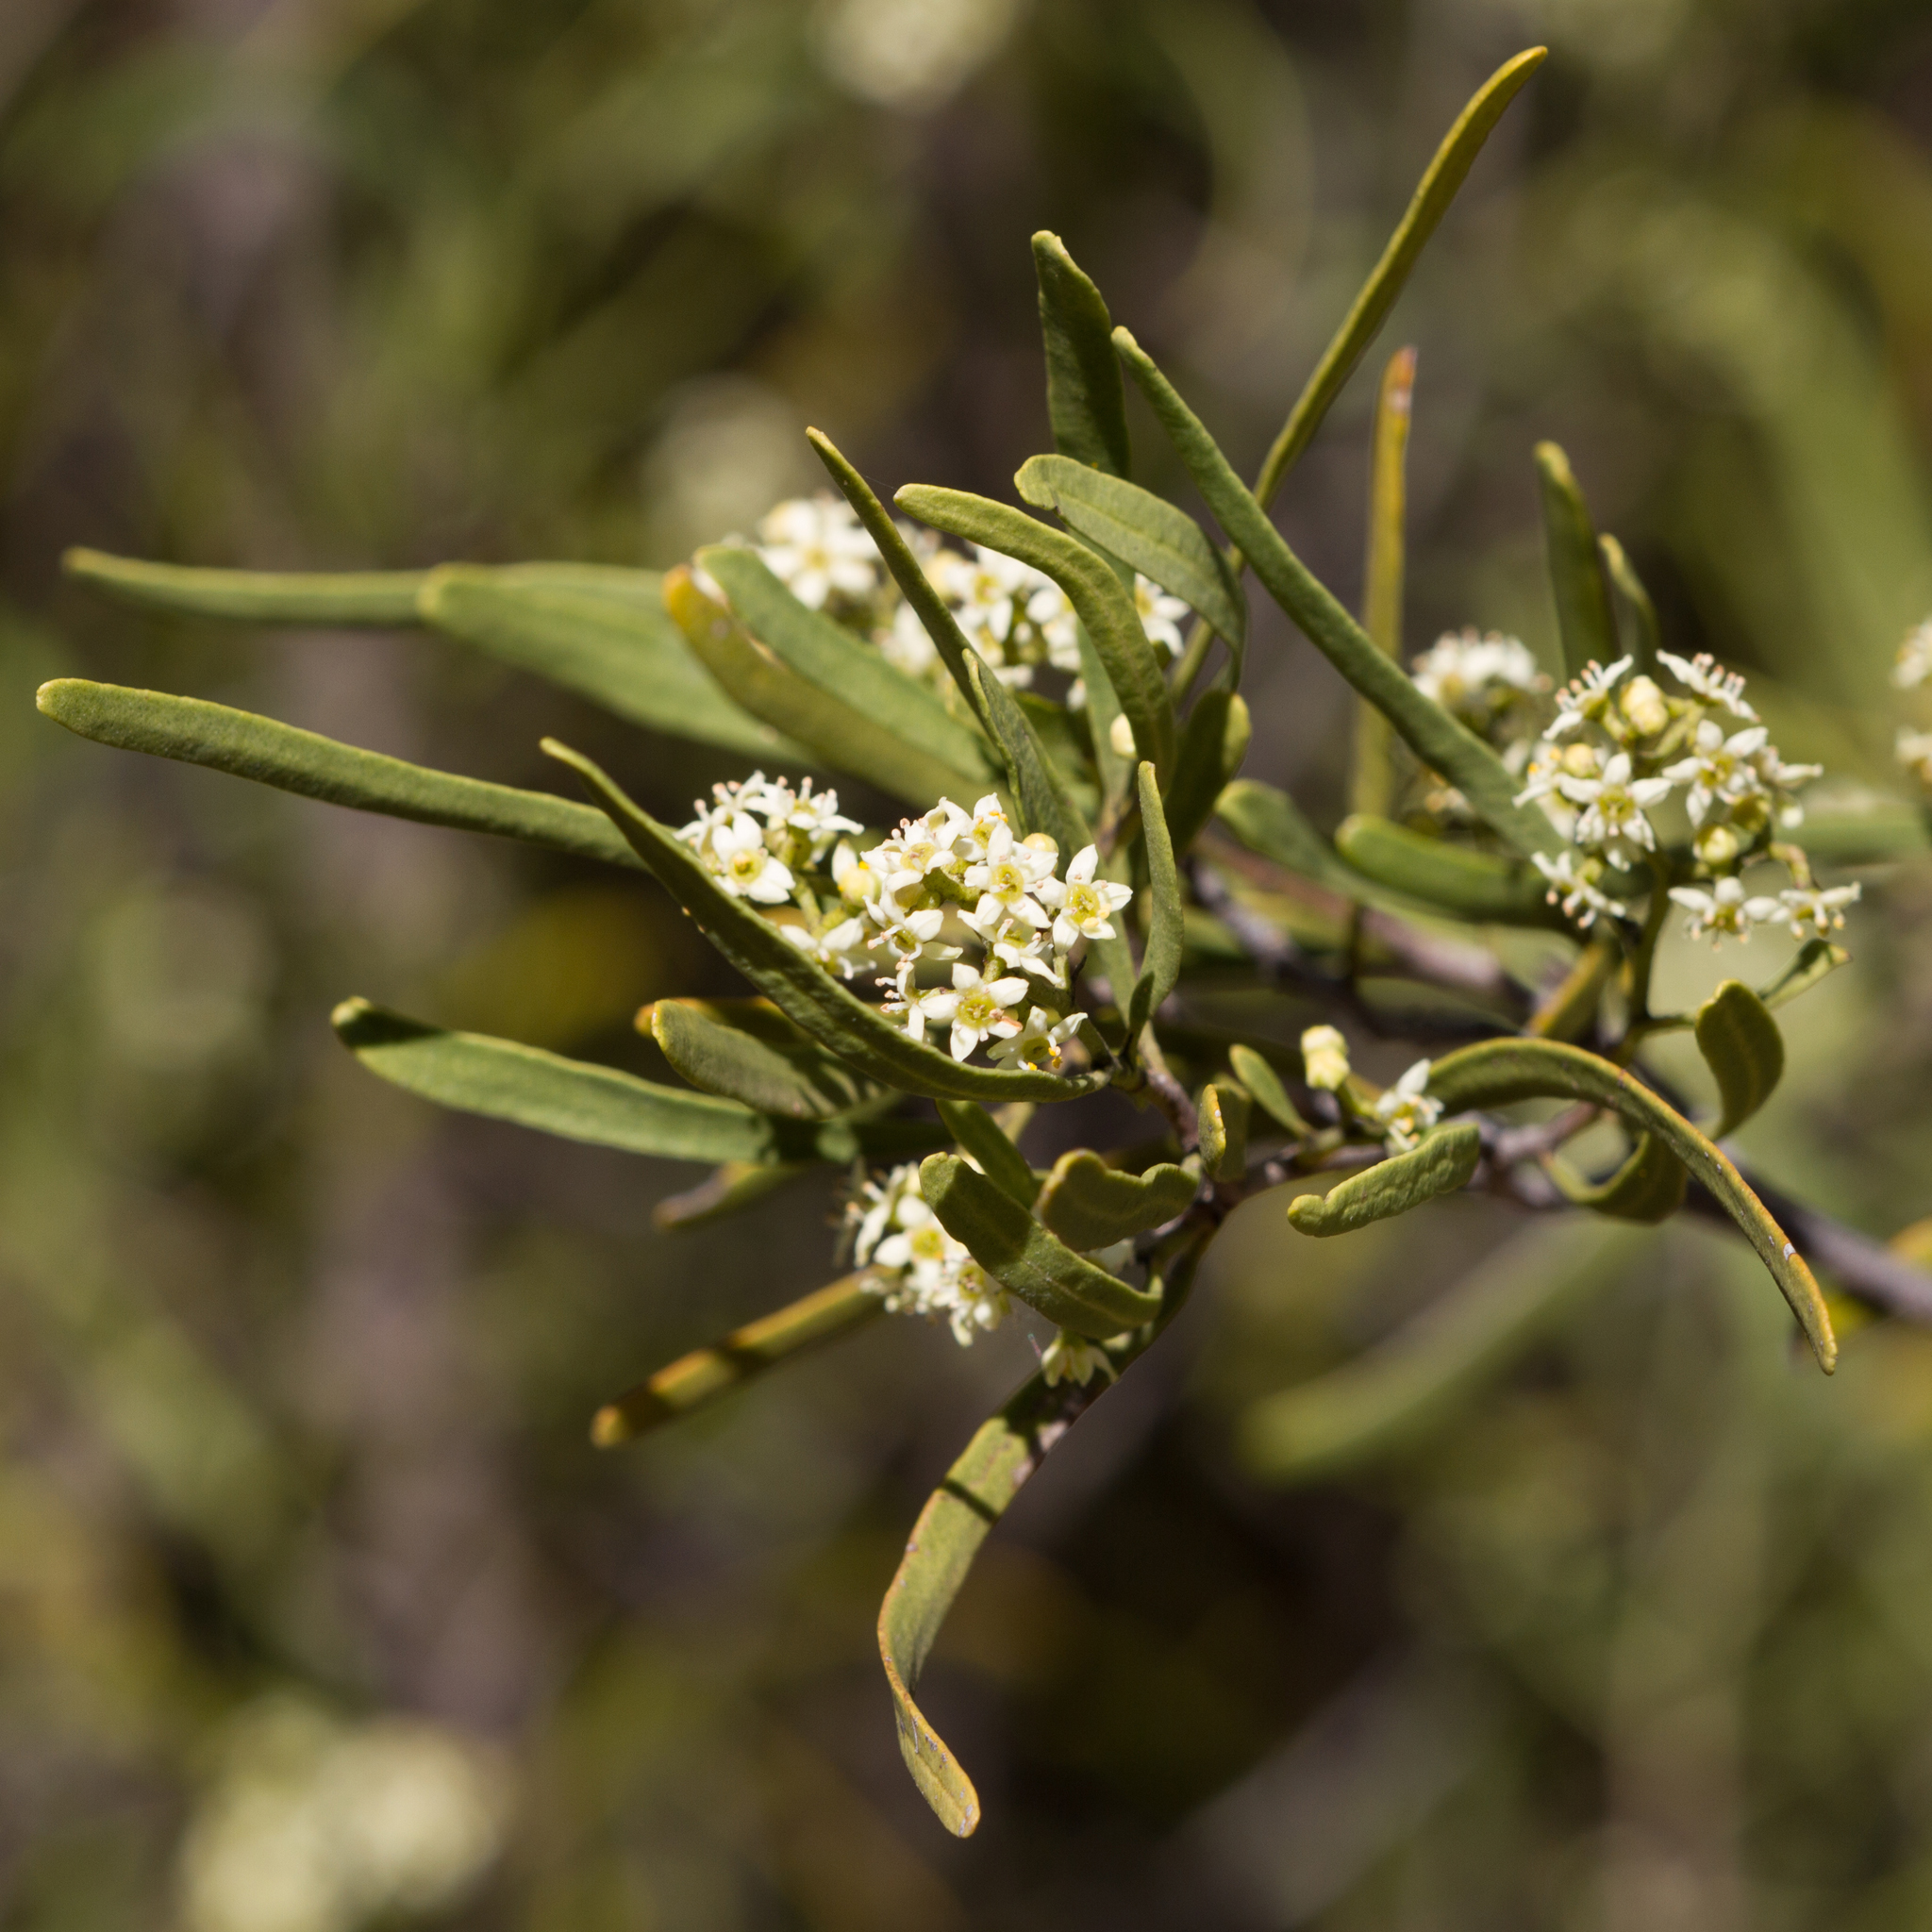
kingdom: Plantae
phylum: Tracheophyta
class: Magnoliopsida
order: Sapindales
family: Rutaceae
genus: Geijera
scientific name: Geijera linearifolia
